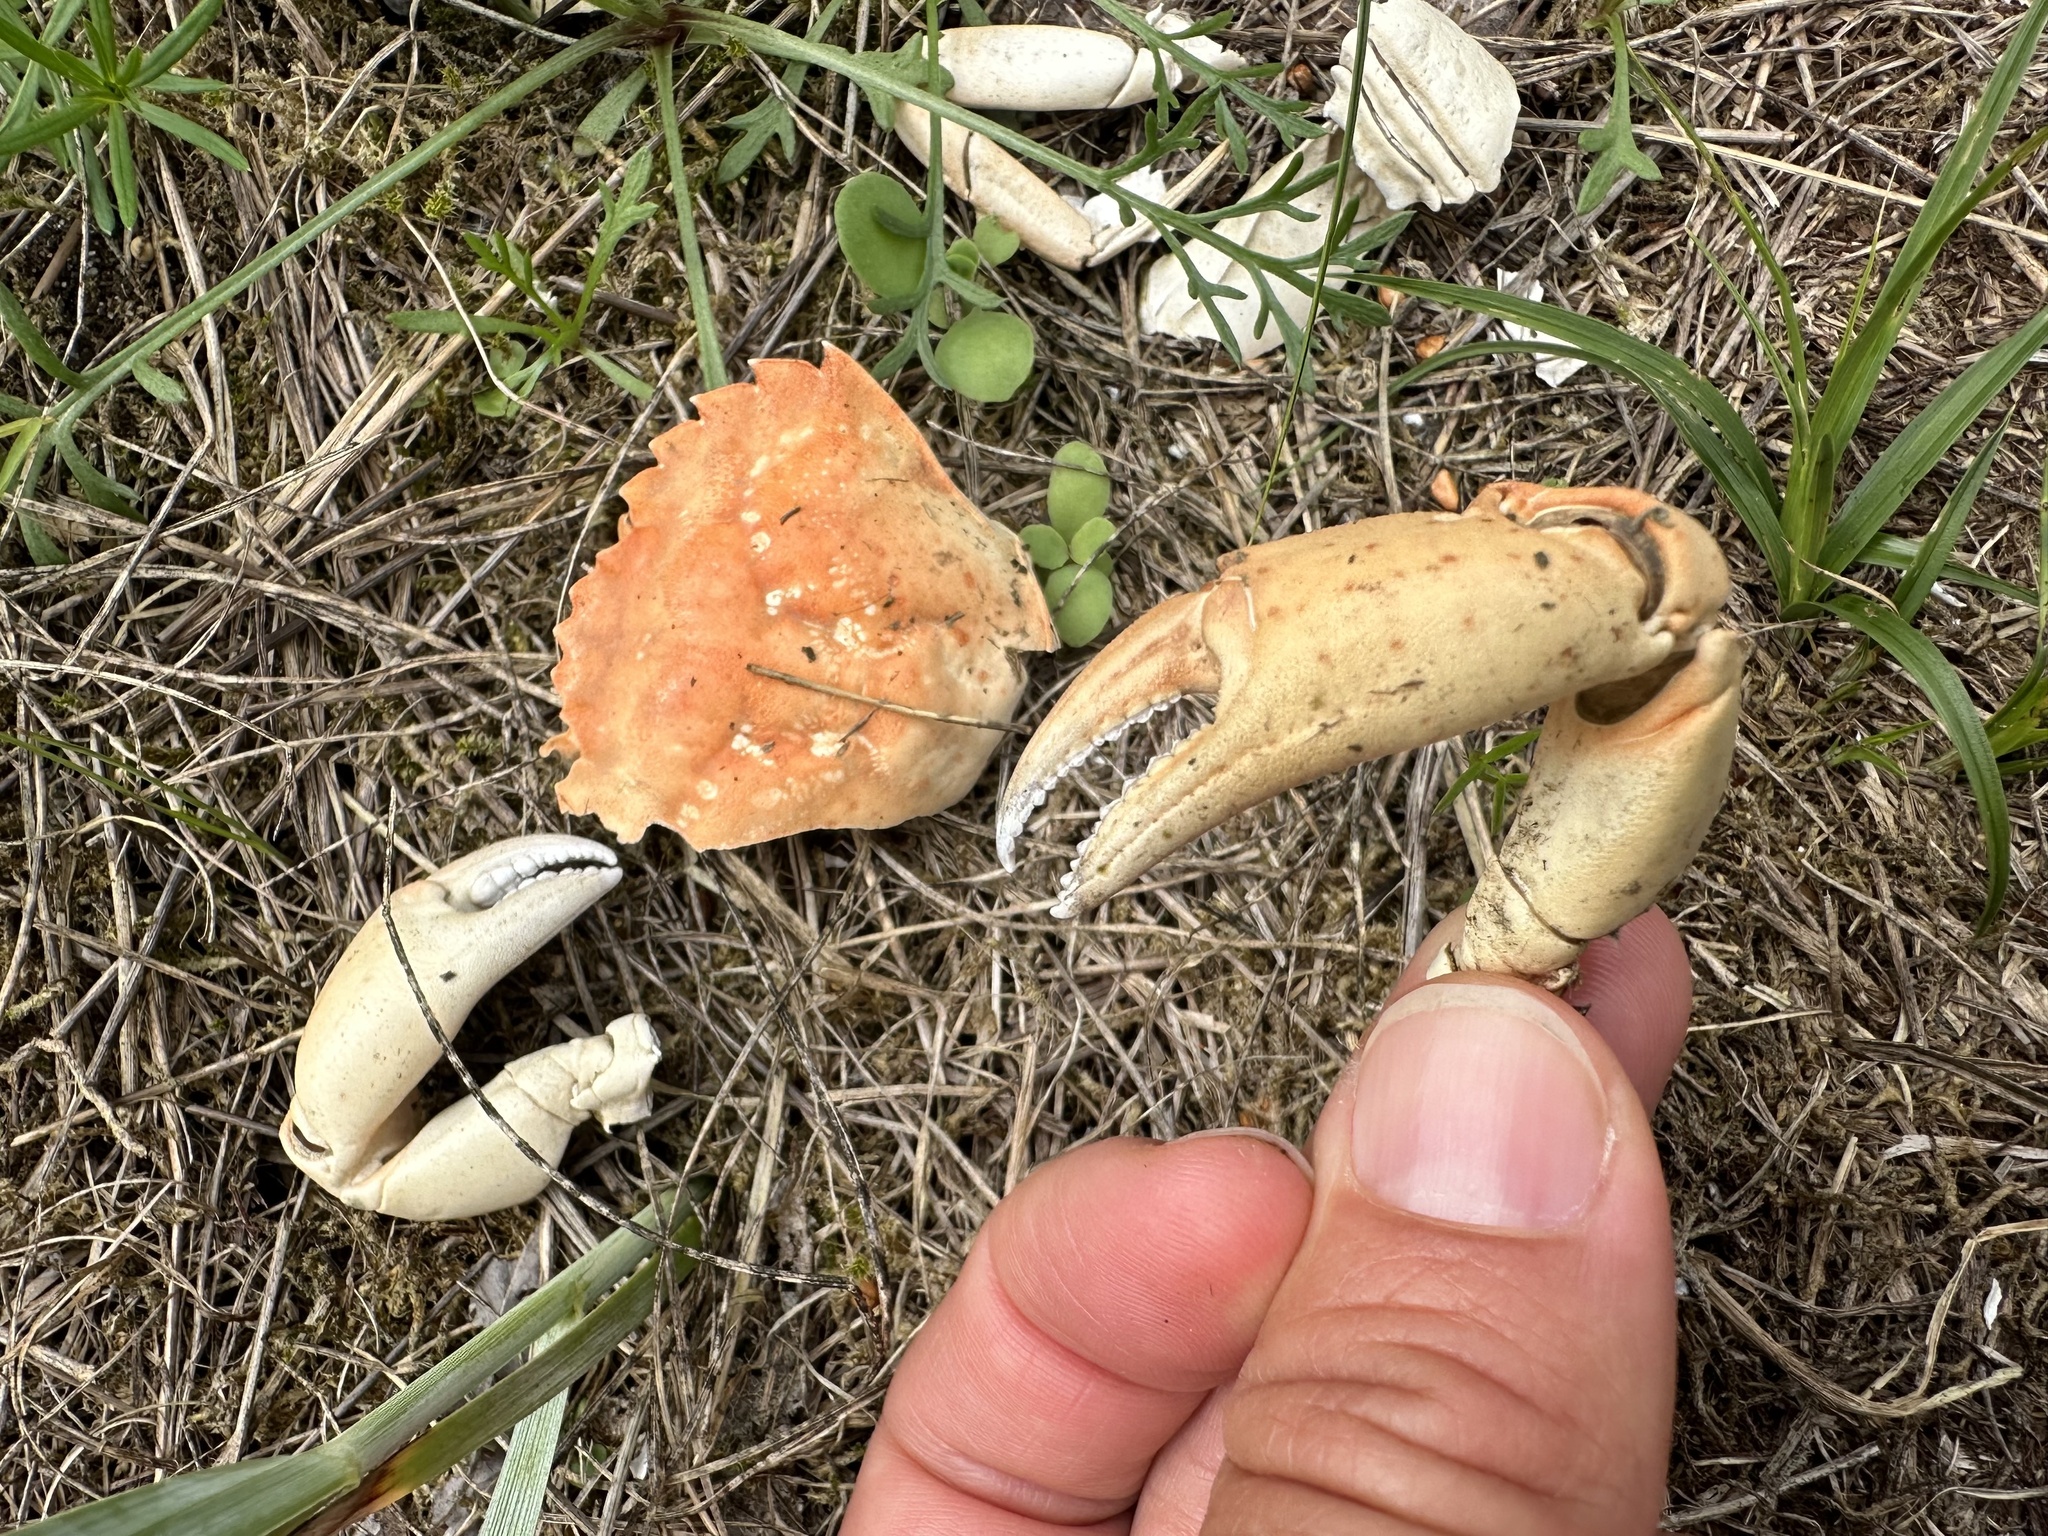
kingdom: Animalia
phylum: Arthropoda
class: Malacostraca
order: Decapoda
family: Carcinidae
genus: Carcinus
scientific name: Carcinus maenas
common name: European green crab
